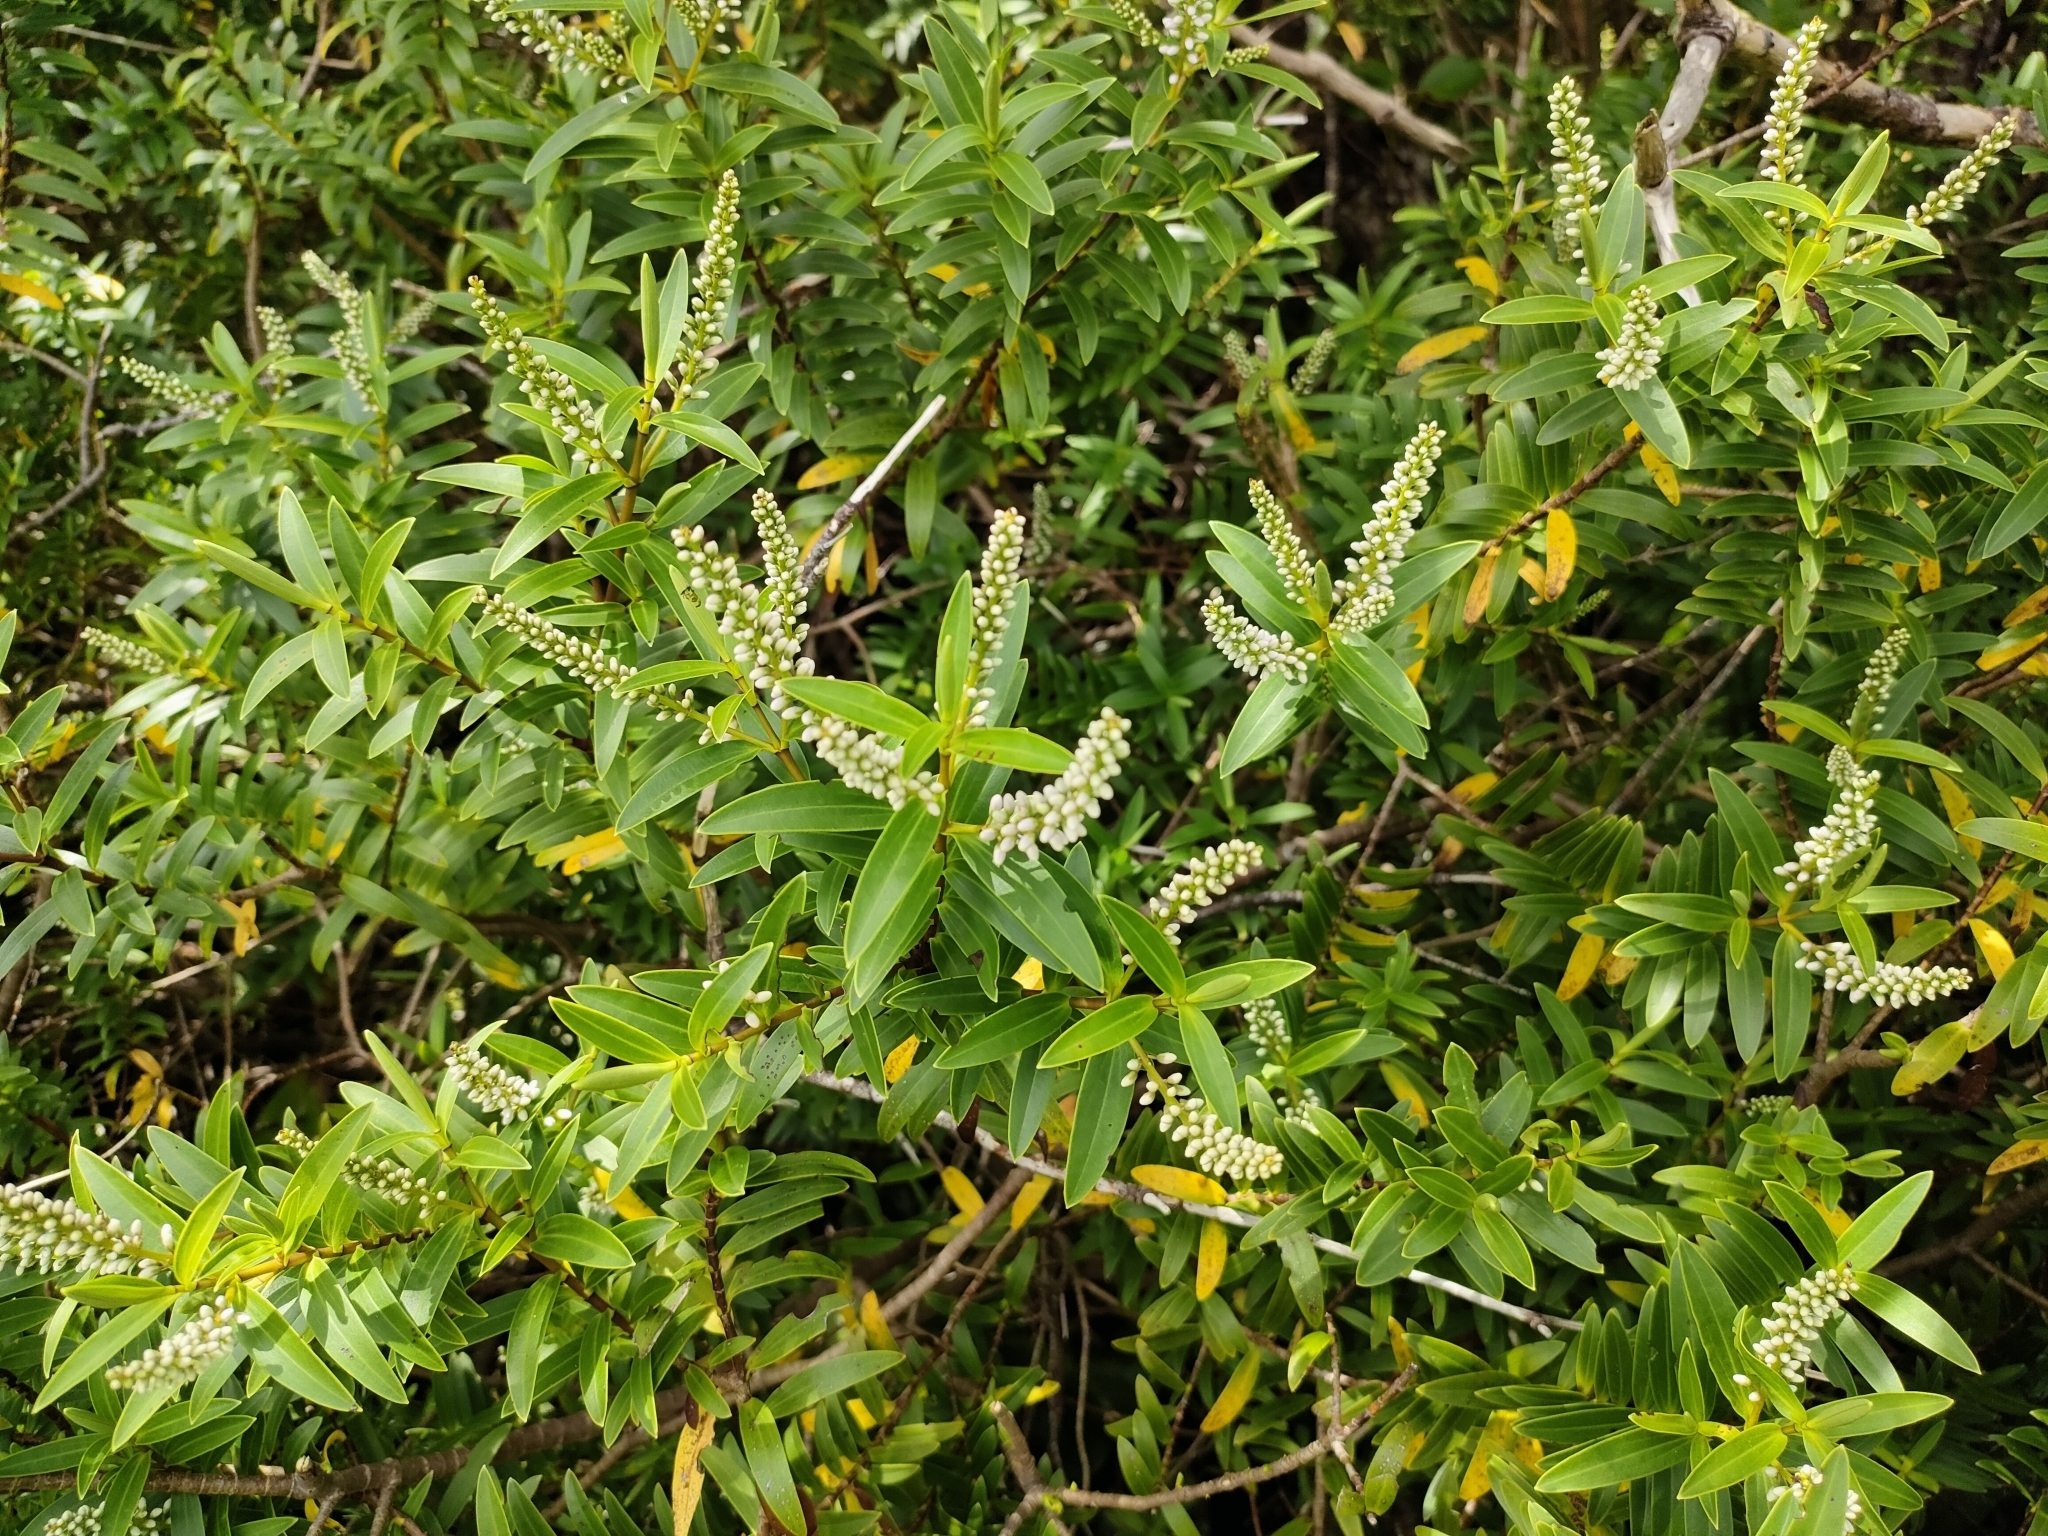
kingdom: Plantae
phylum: Tracheophyta
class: Magnoliopsida
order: Lamiales
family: Plantaginaceae
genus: Veronica
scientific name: Veronica strictissima
